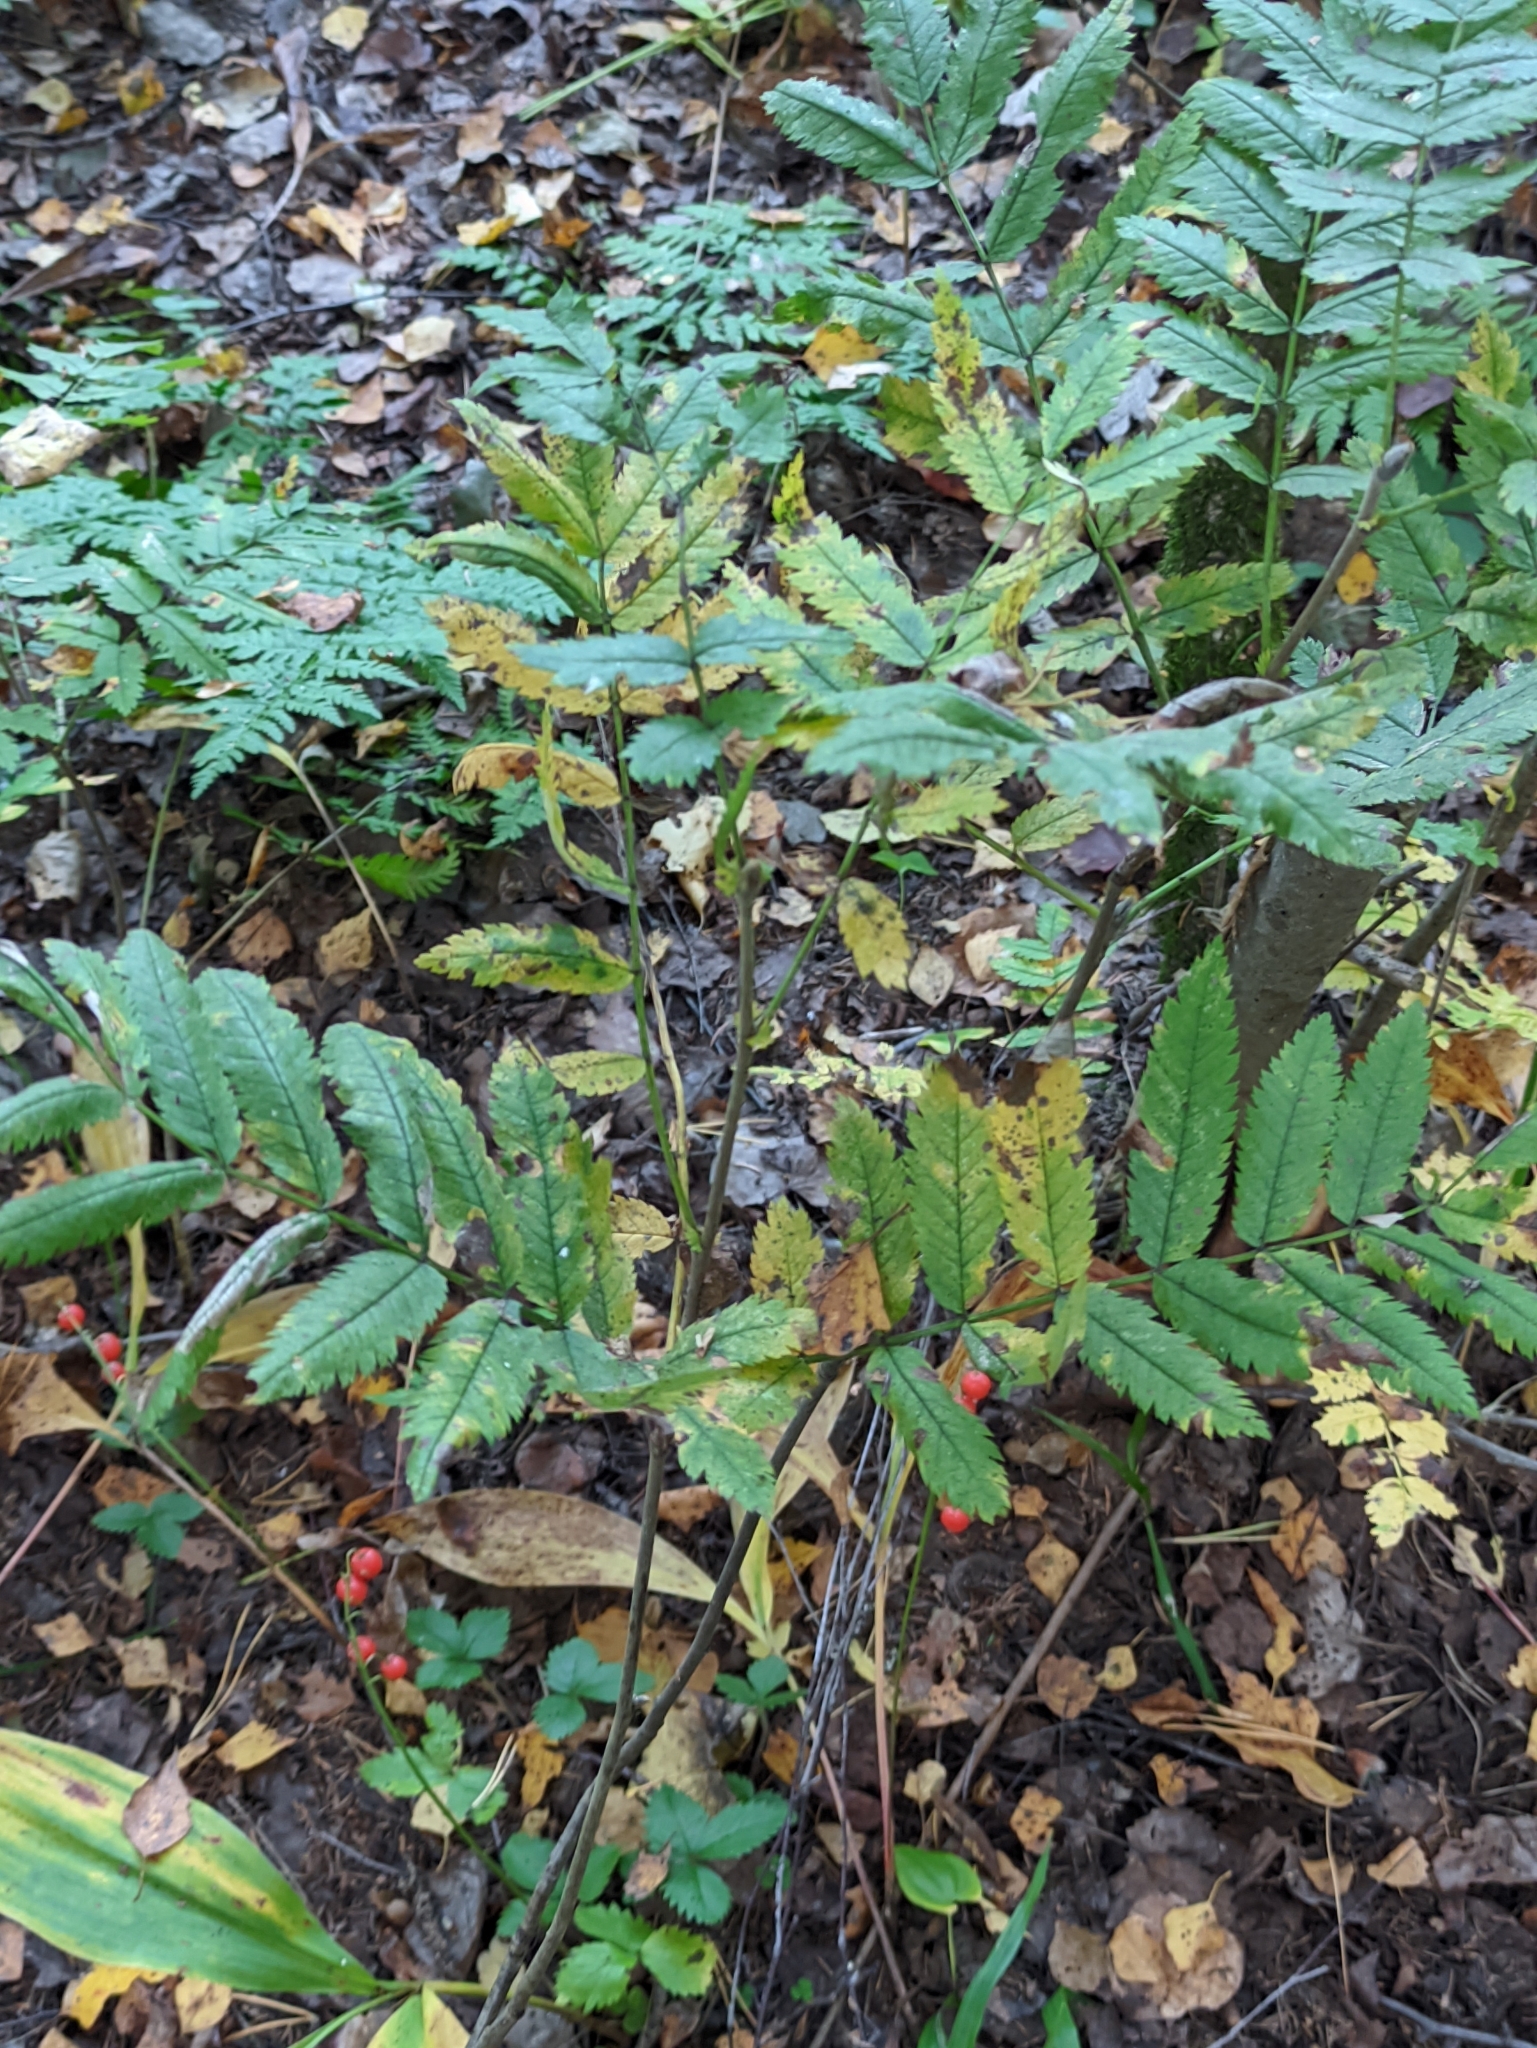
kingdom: Plantae
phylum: Tracheophyta
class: Magnoliopsida
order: Rosales
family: Rosaceae
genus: Sorbus
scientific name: Sorbus aucuparia
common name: Rowan
